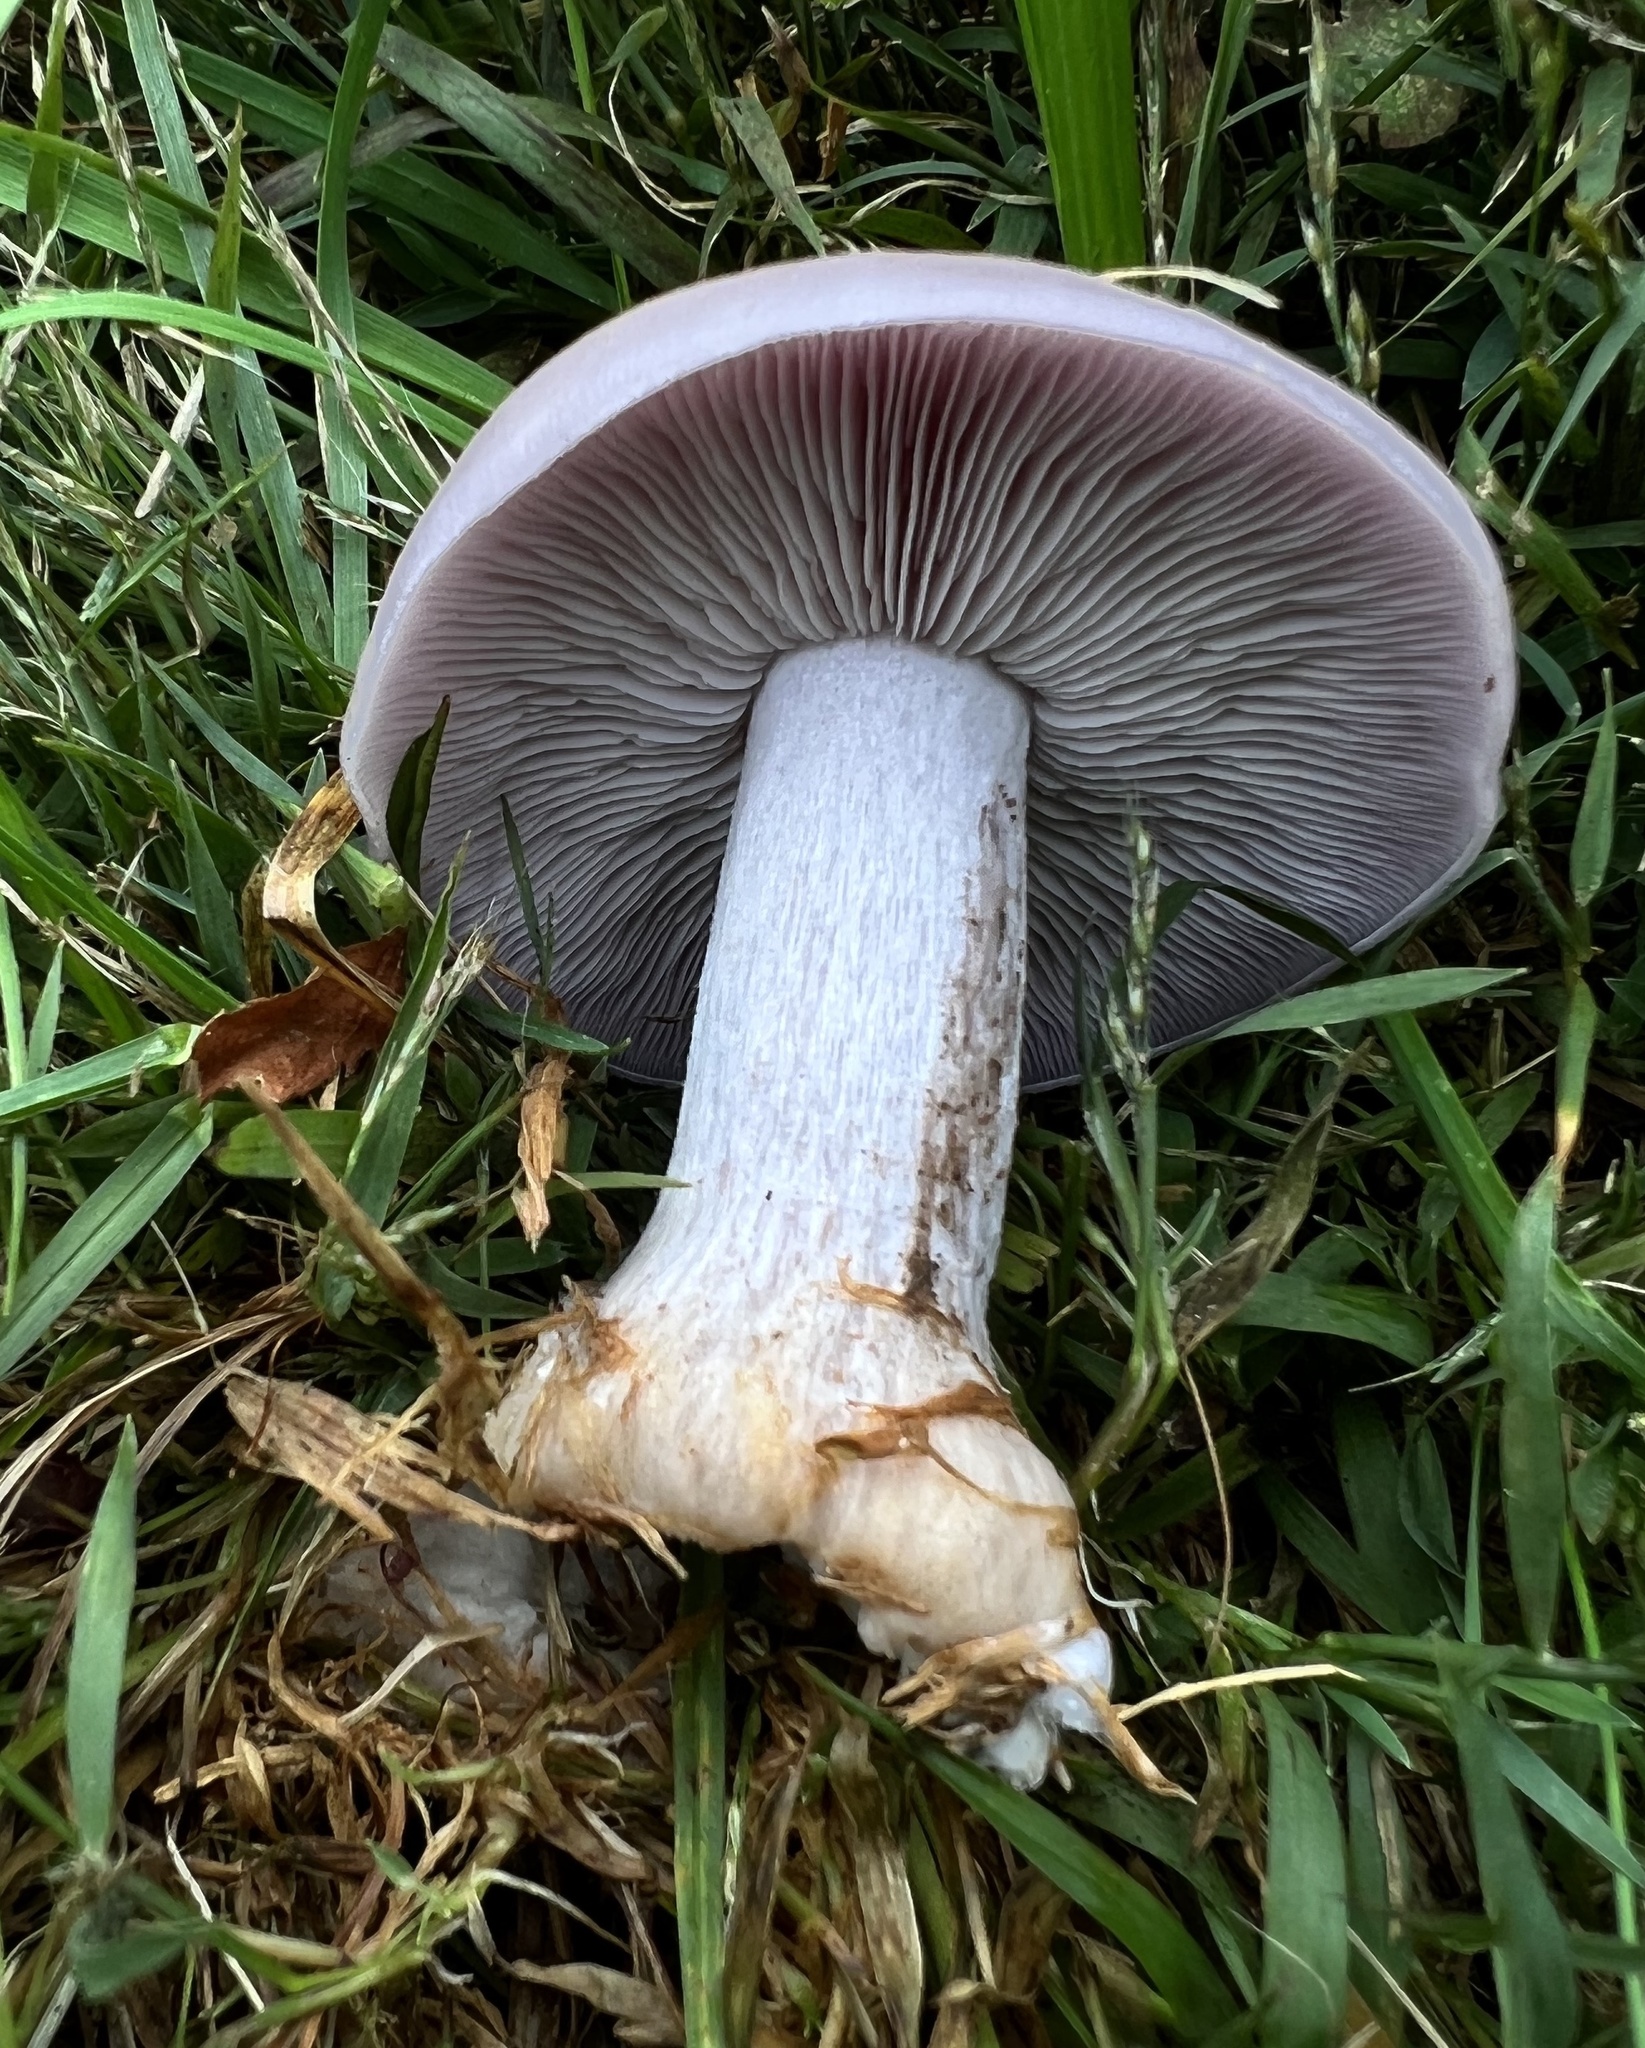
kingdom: Fungi
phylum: Basidiomycota
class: Agaricomycetes
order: Agaricales
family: Tricholomataceae
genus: Collybia
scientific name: Collybia
